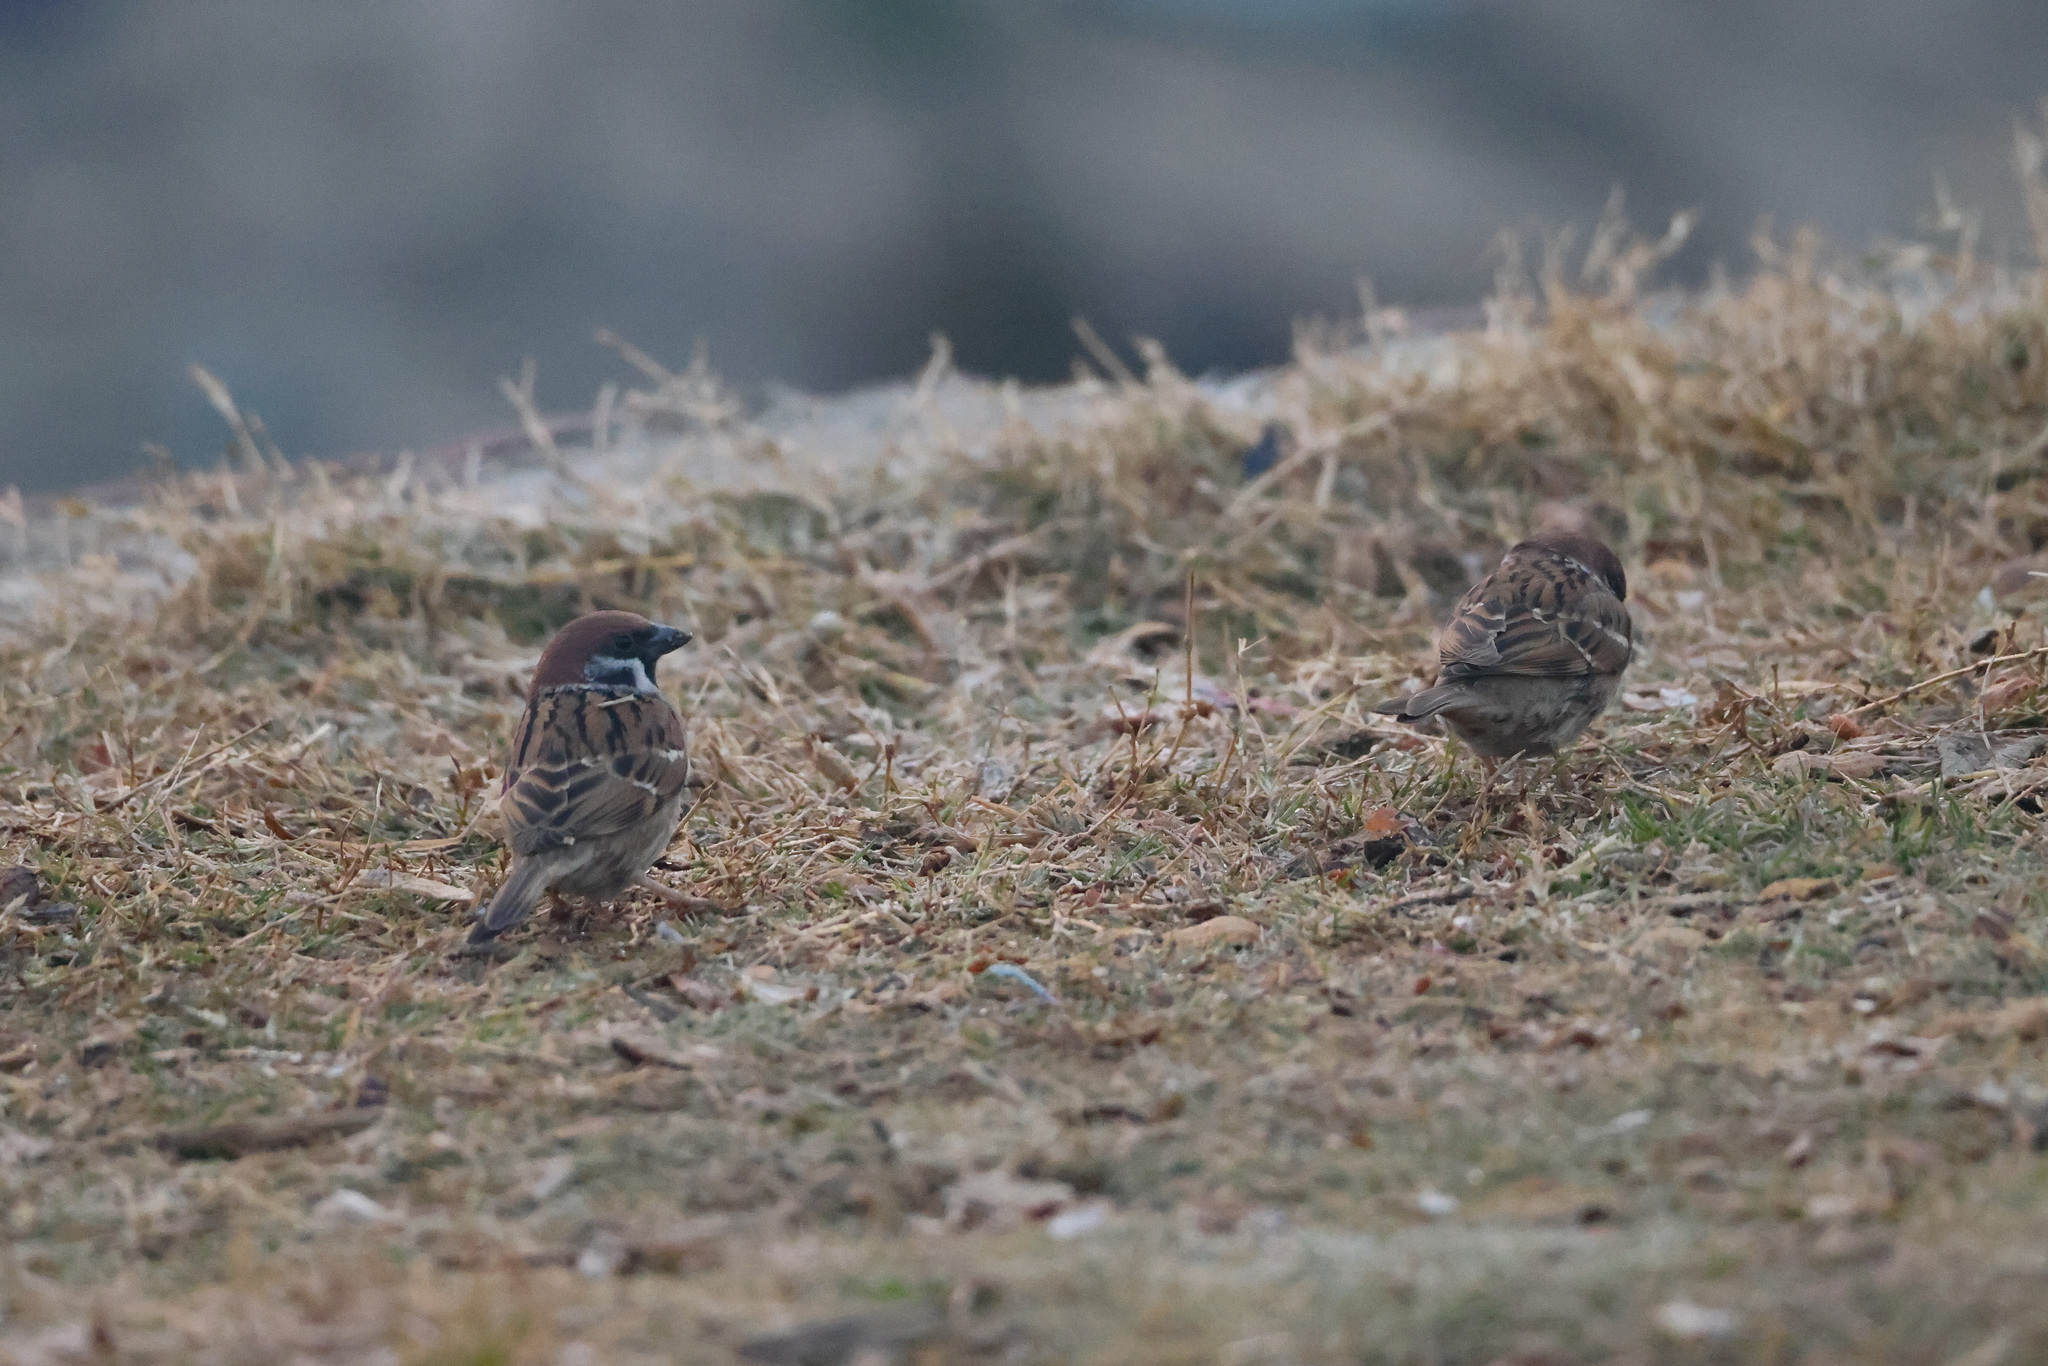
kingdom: Animalia
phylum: Chordata
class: Aves
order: Passeriformes
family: Passeridae
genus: Passer
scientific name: Passer montanus
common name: Eurasian tree sparrow
